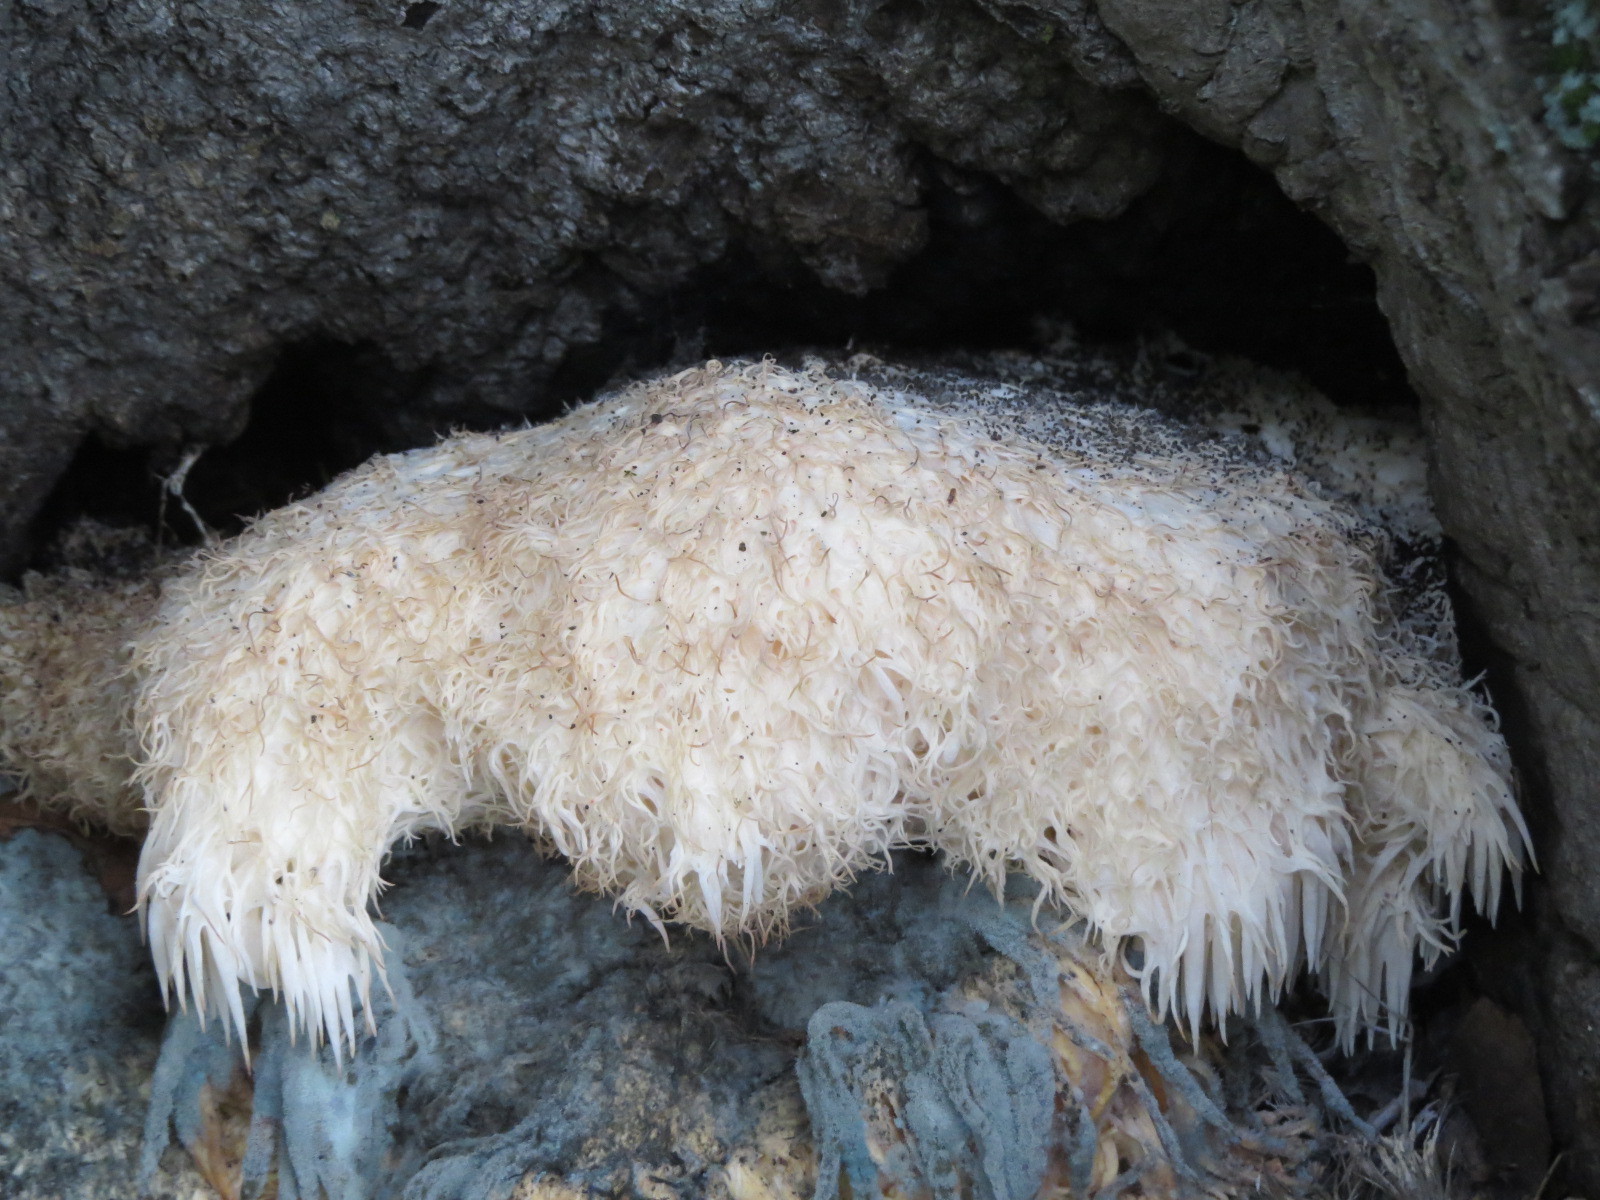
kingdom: Fungi
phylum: Basidiomycota
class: Agaricomycetes
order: Russulales
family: Hericiaceae
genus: Hericium
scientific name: Hericium erinaceus
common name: Bearded tooth
